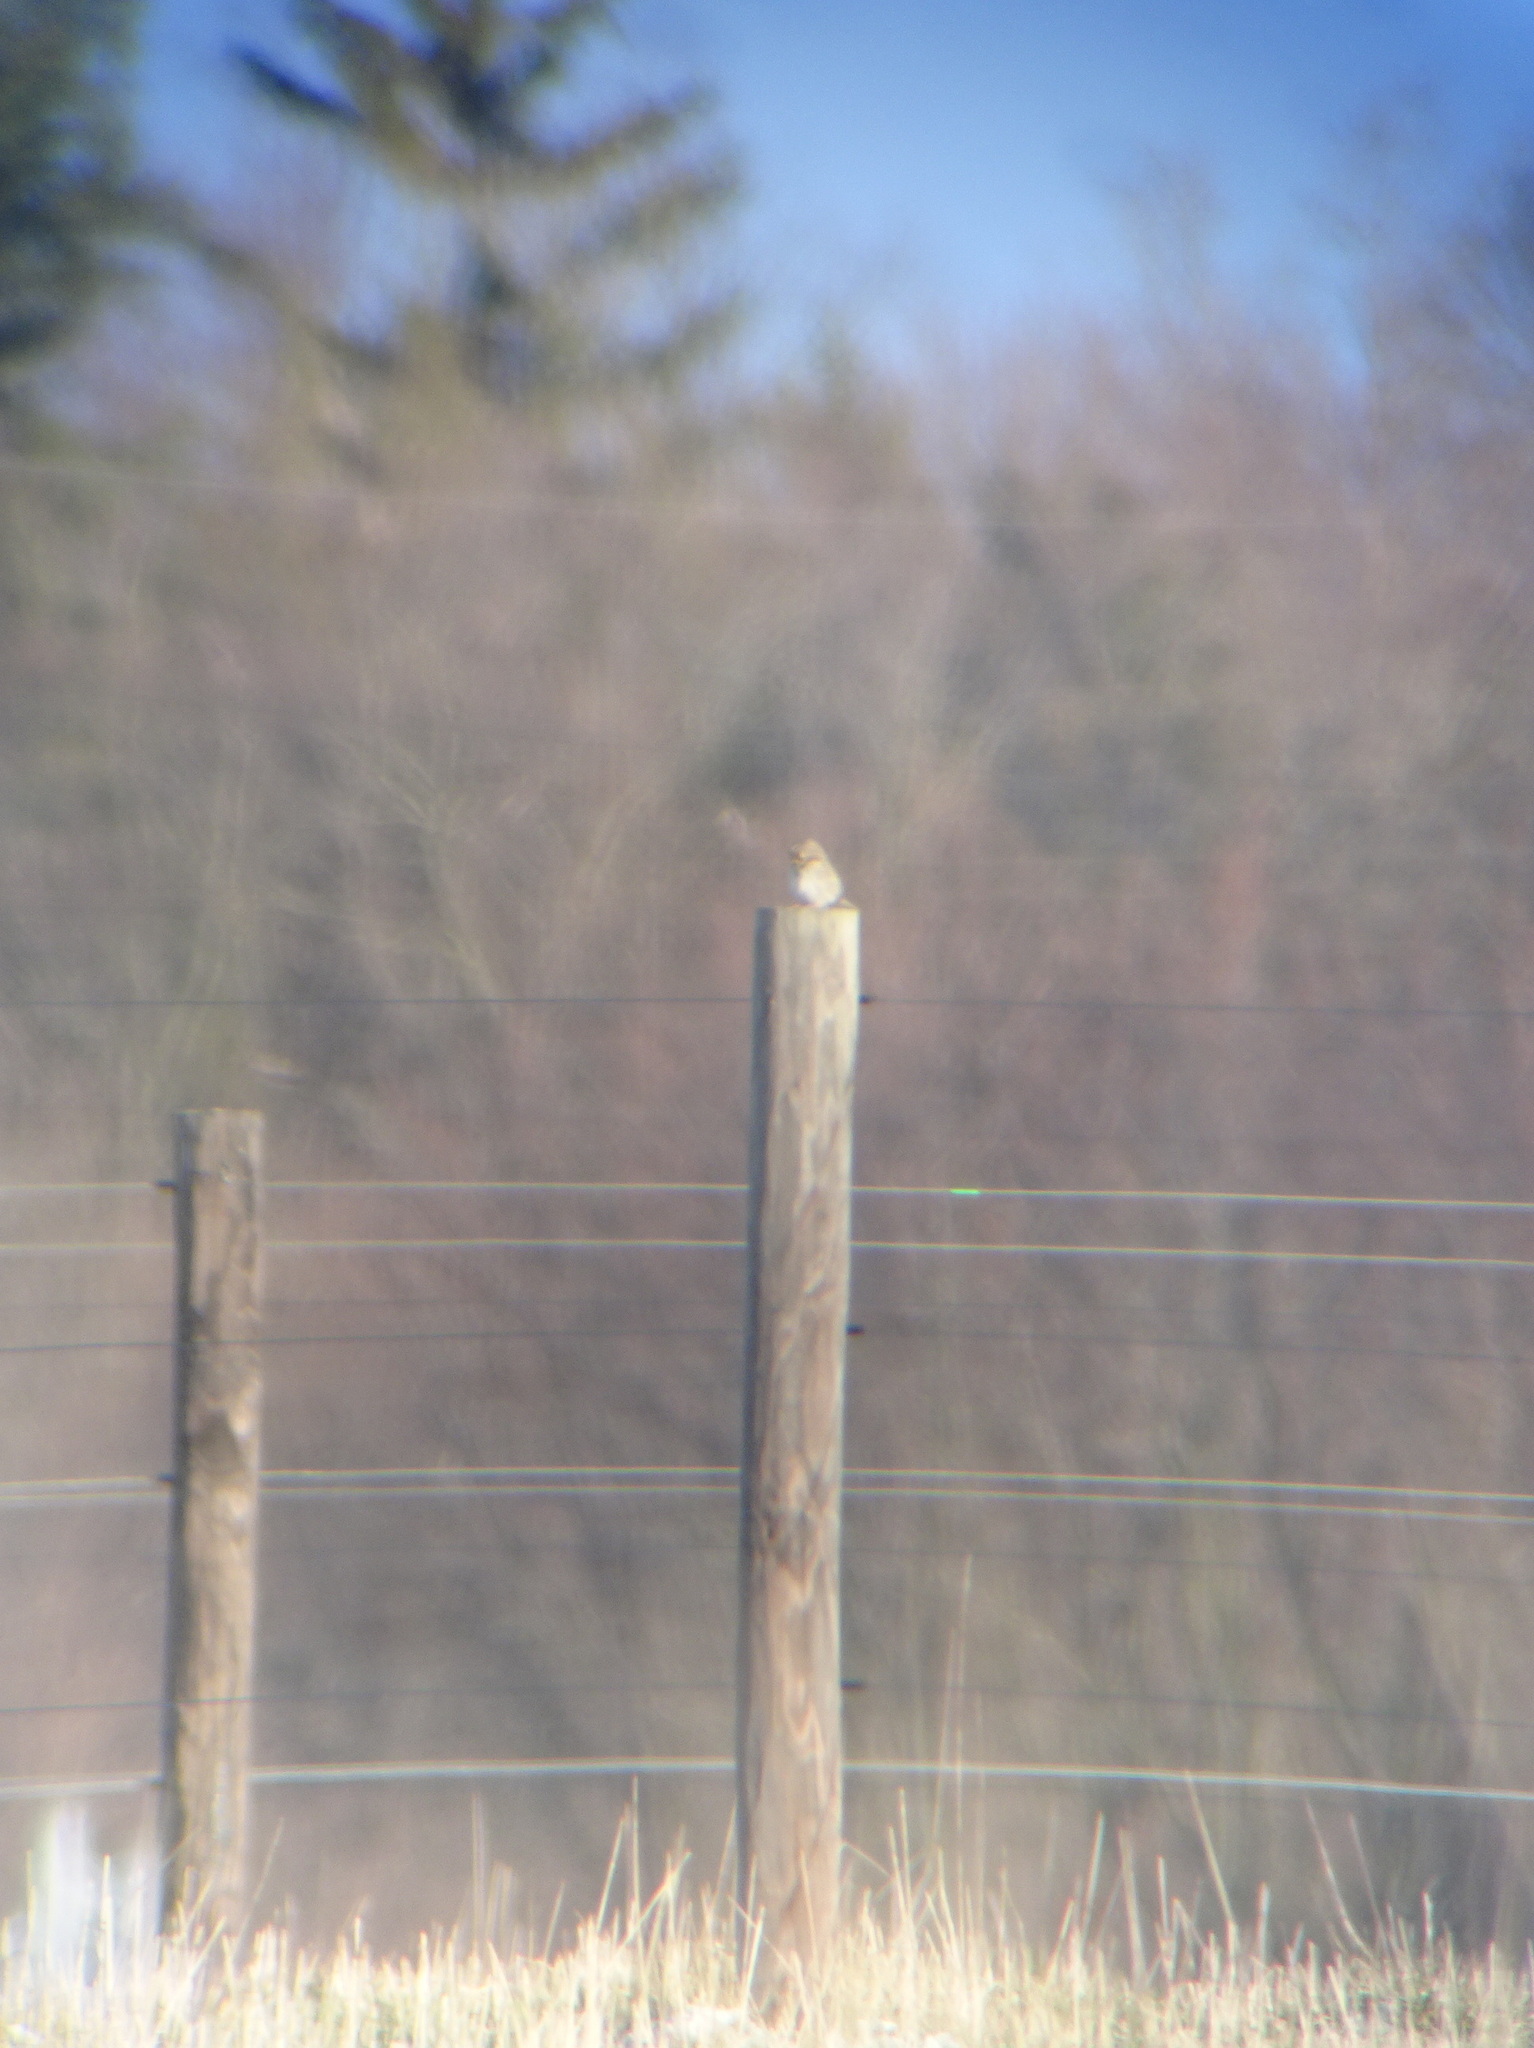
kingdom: Animalia
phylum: Chordata
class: Aves
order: Passeriformes
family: Passerellidae
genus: Passerculus
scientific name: Passerculus sandwichensis
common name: Savannah sparrow
